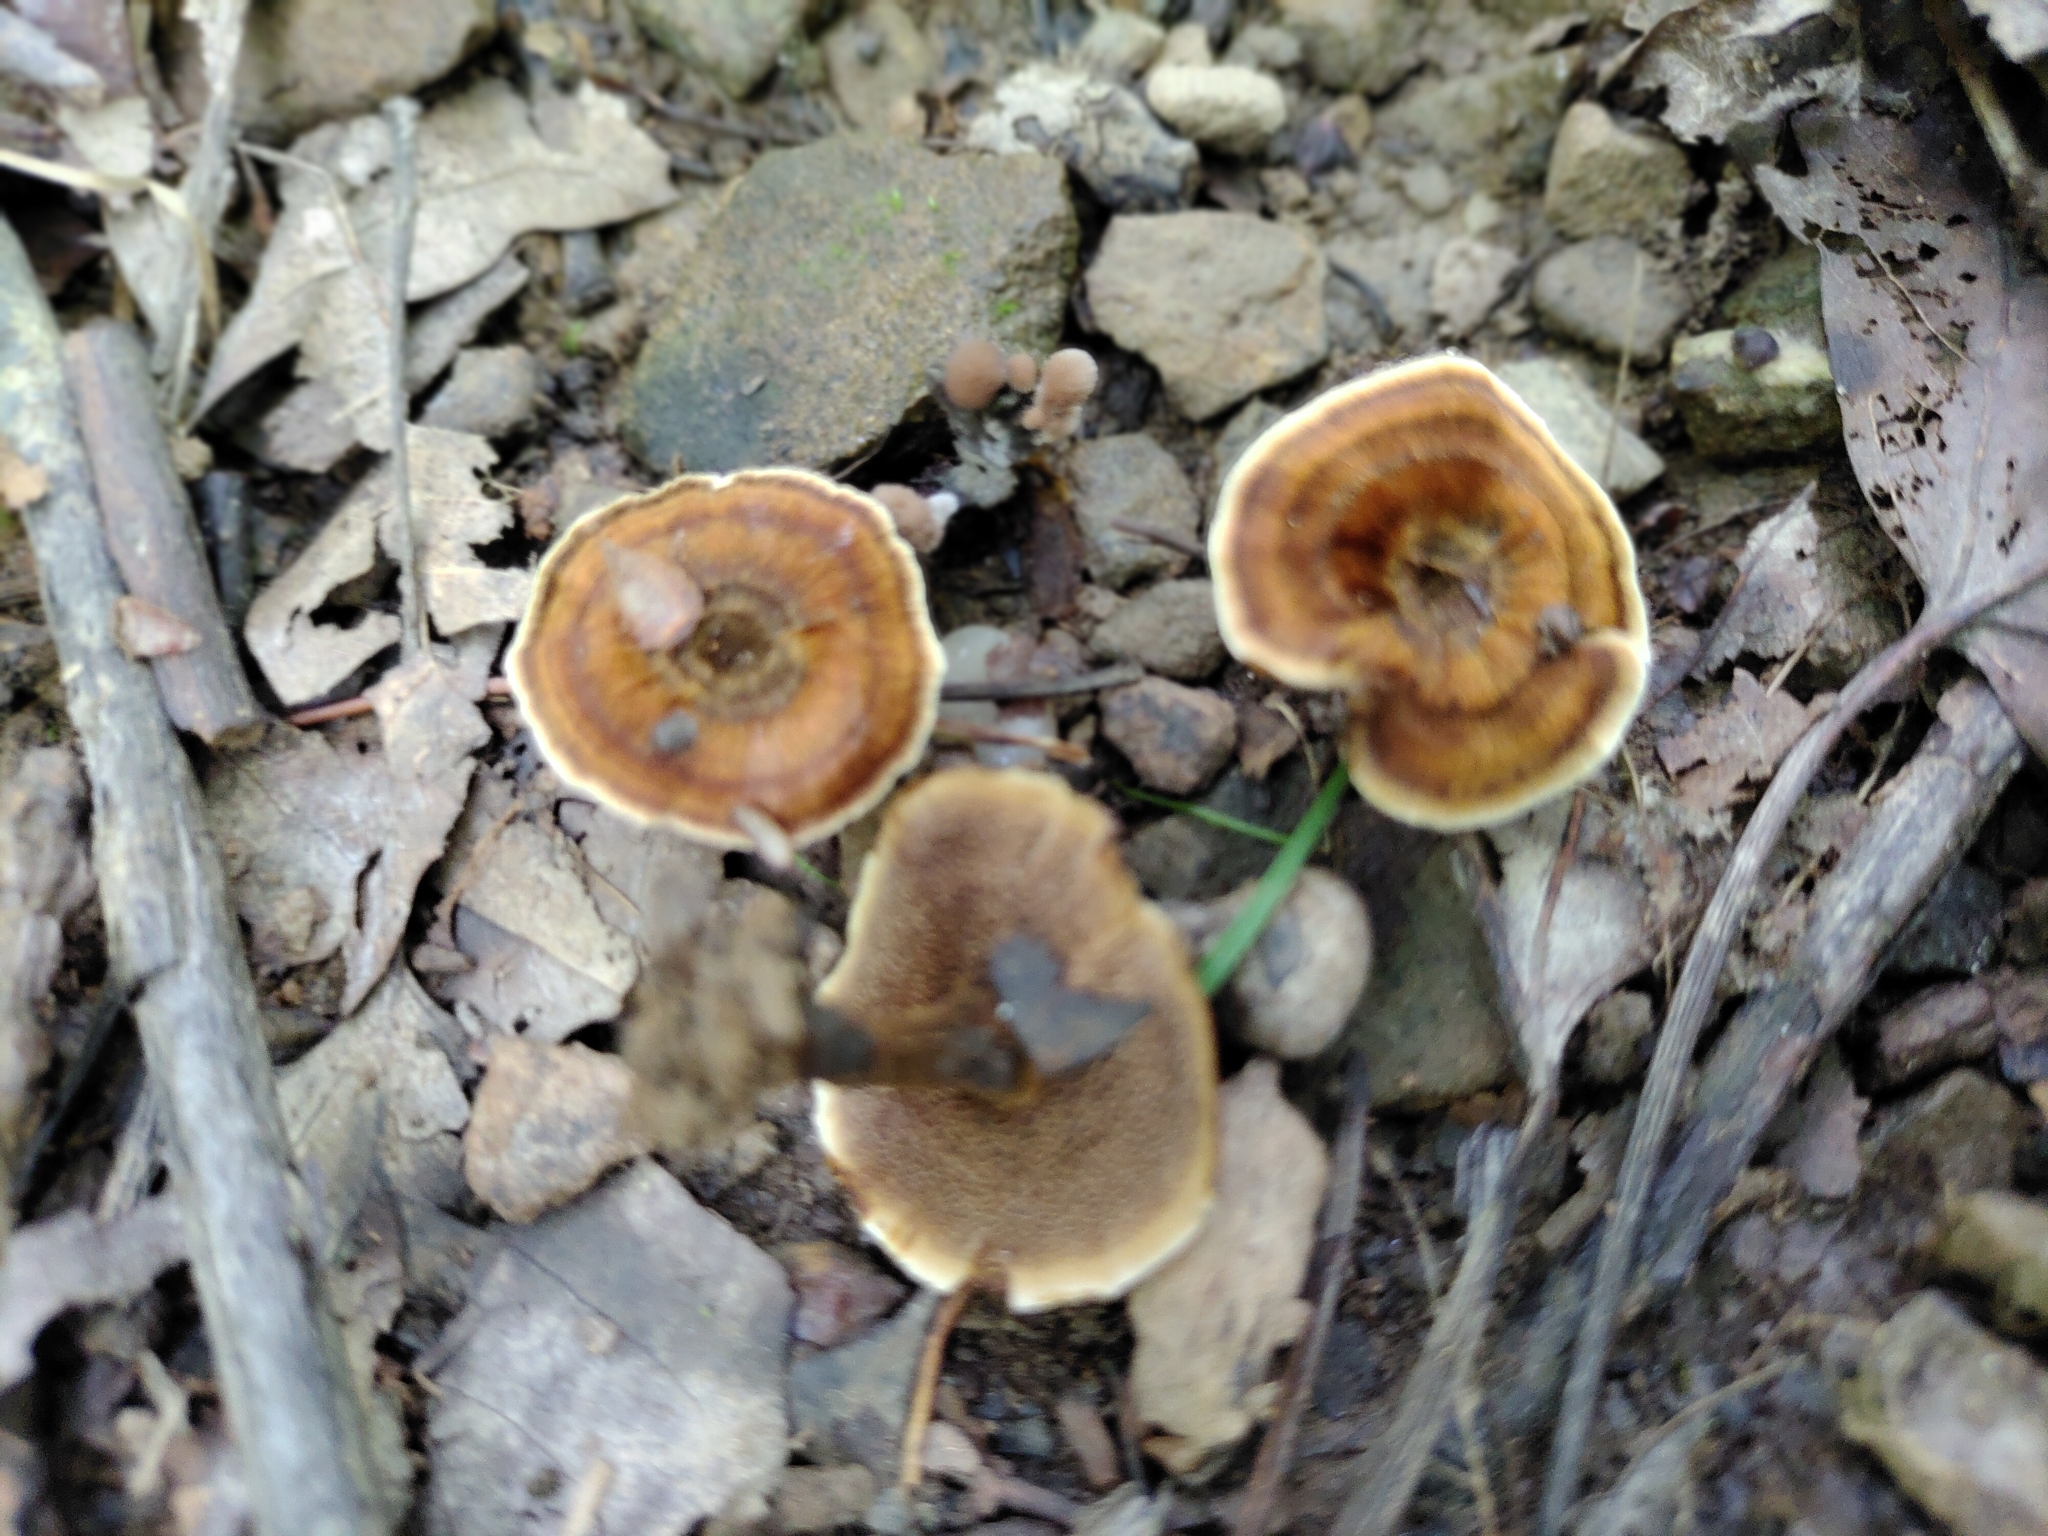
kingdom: Fungi
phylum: Basidiomycota
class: Agaricomycetes
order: Hymenochaetales
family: Hymenochaetaceae
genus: Coltricia
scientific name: Coltricia perennis
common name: Tiger's eye
